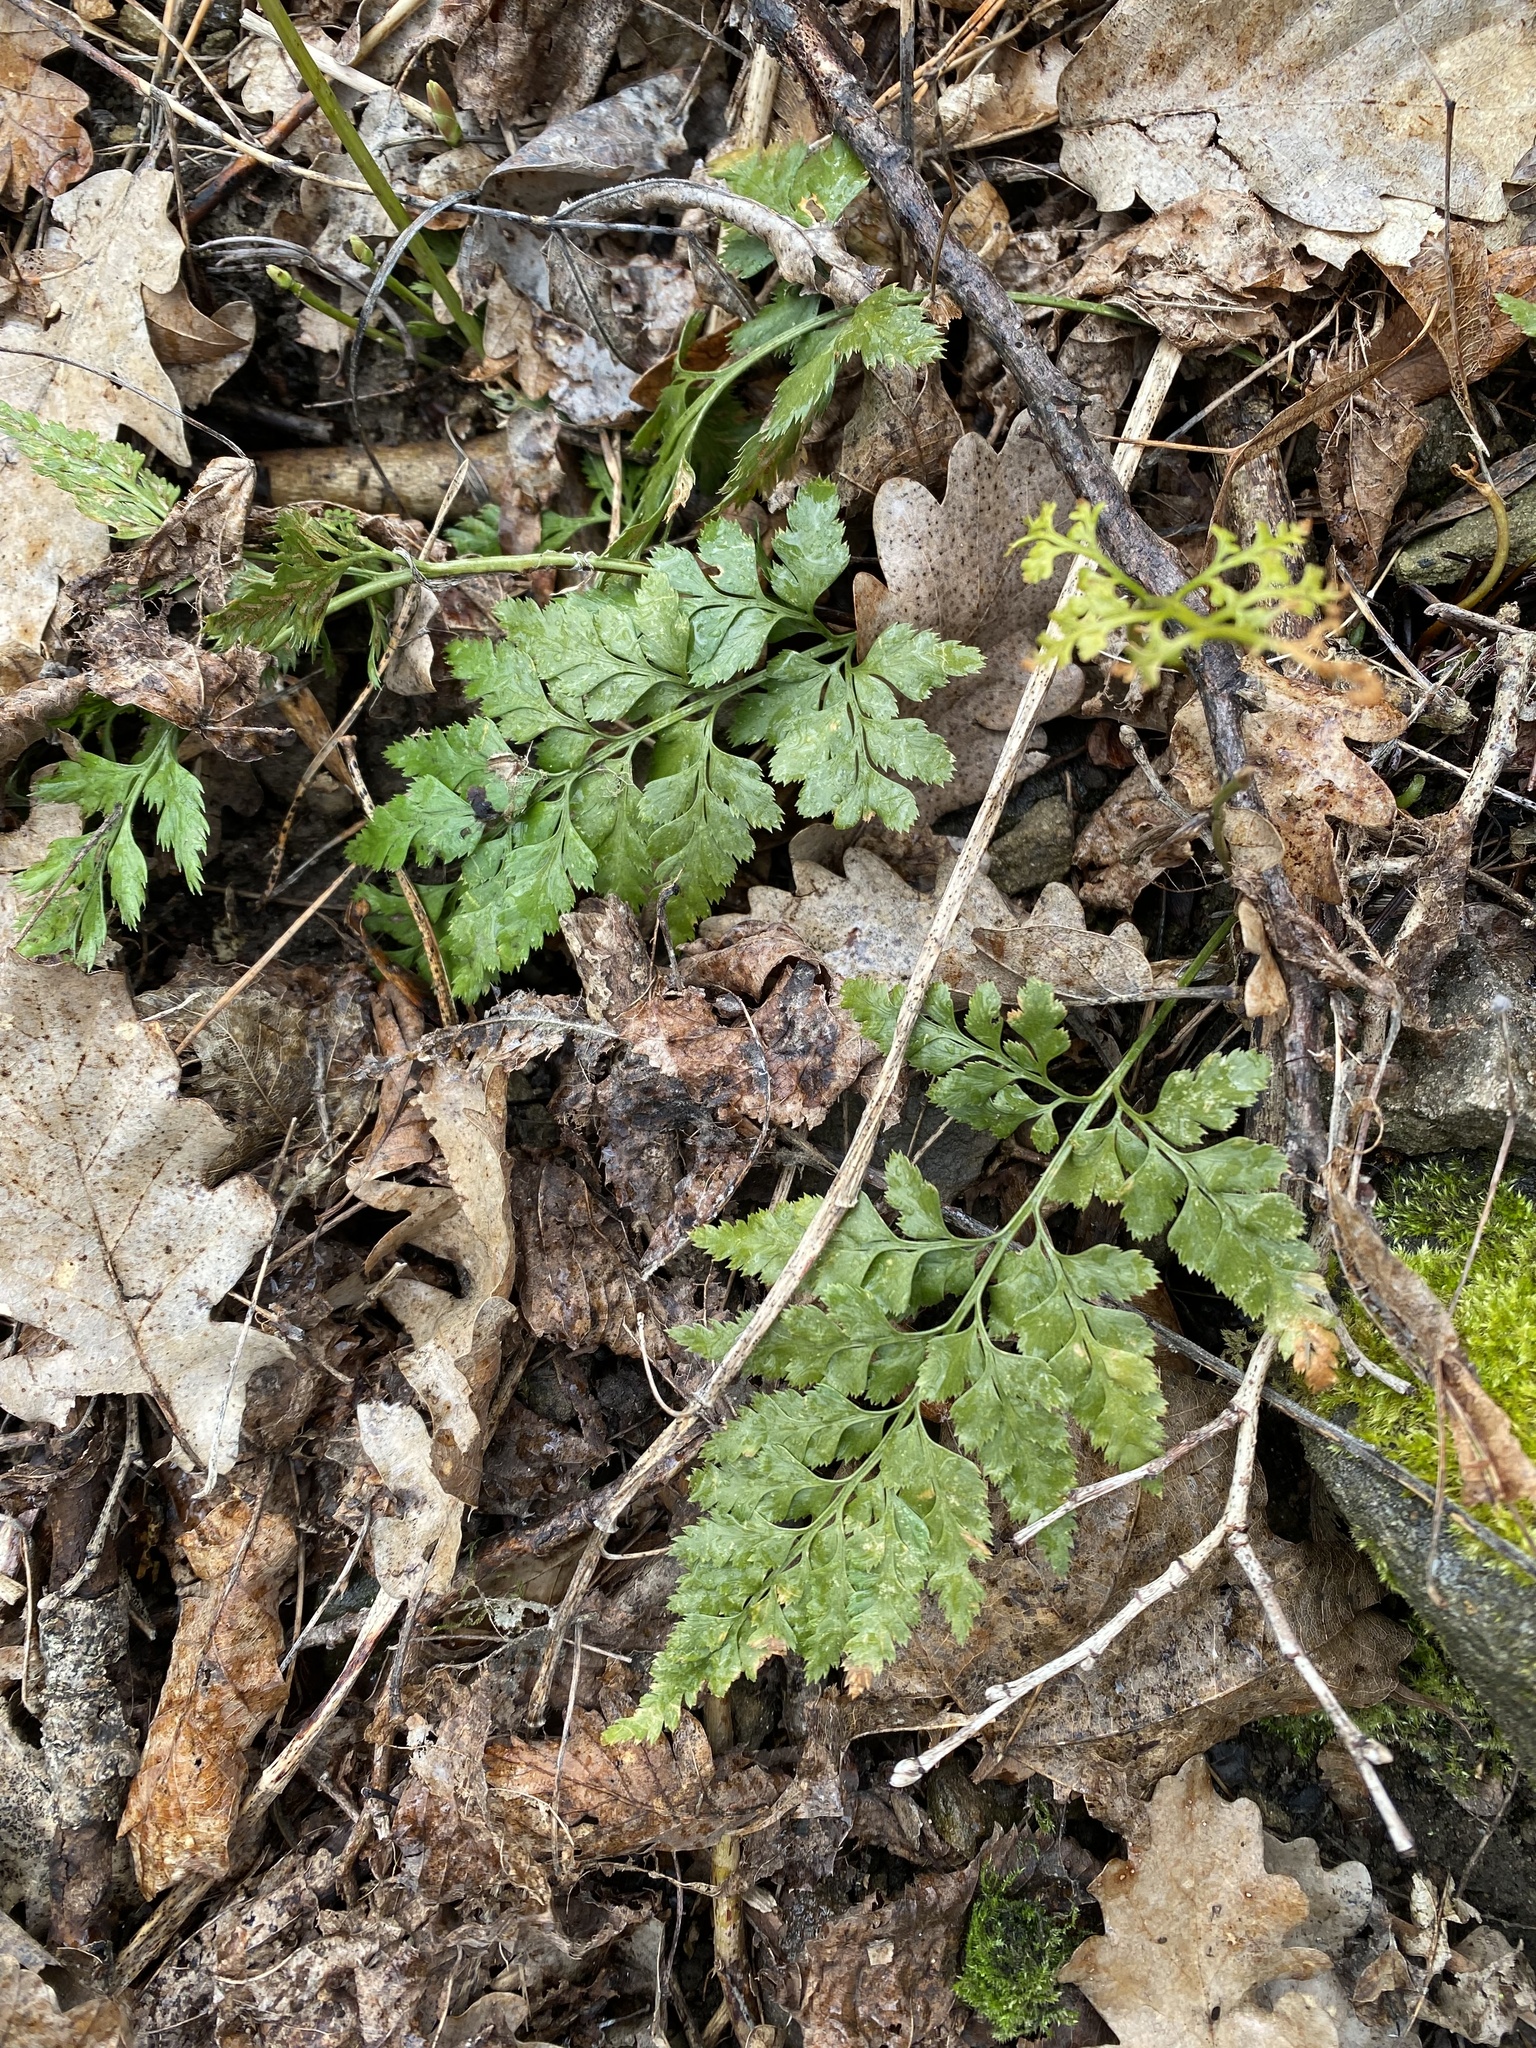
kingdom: Plantae
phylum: Tracheophyta
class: Polypodiopsida
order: Polypodiales
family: Aspleniaceae
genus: Asplenium
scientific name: Asplenium adiantum-nigrum
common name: Black spleenwort
